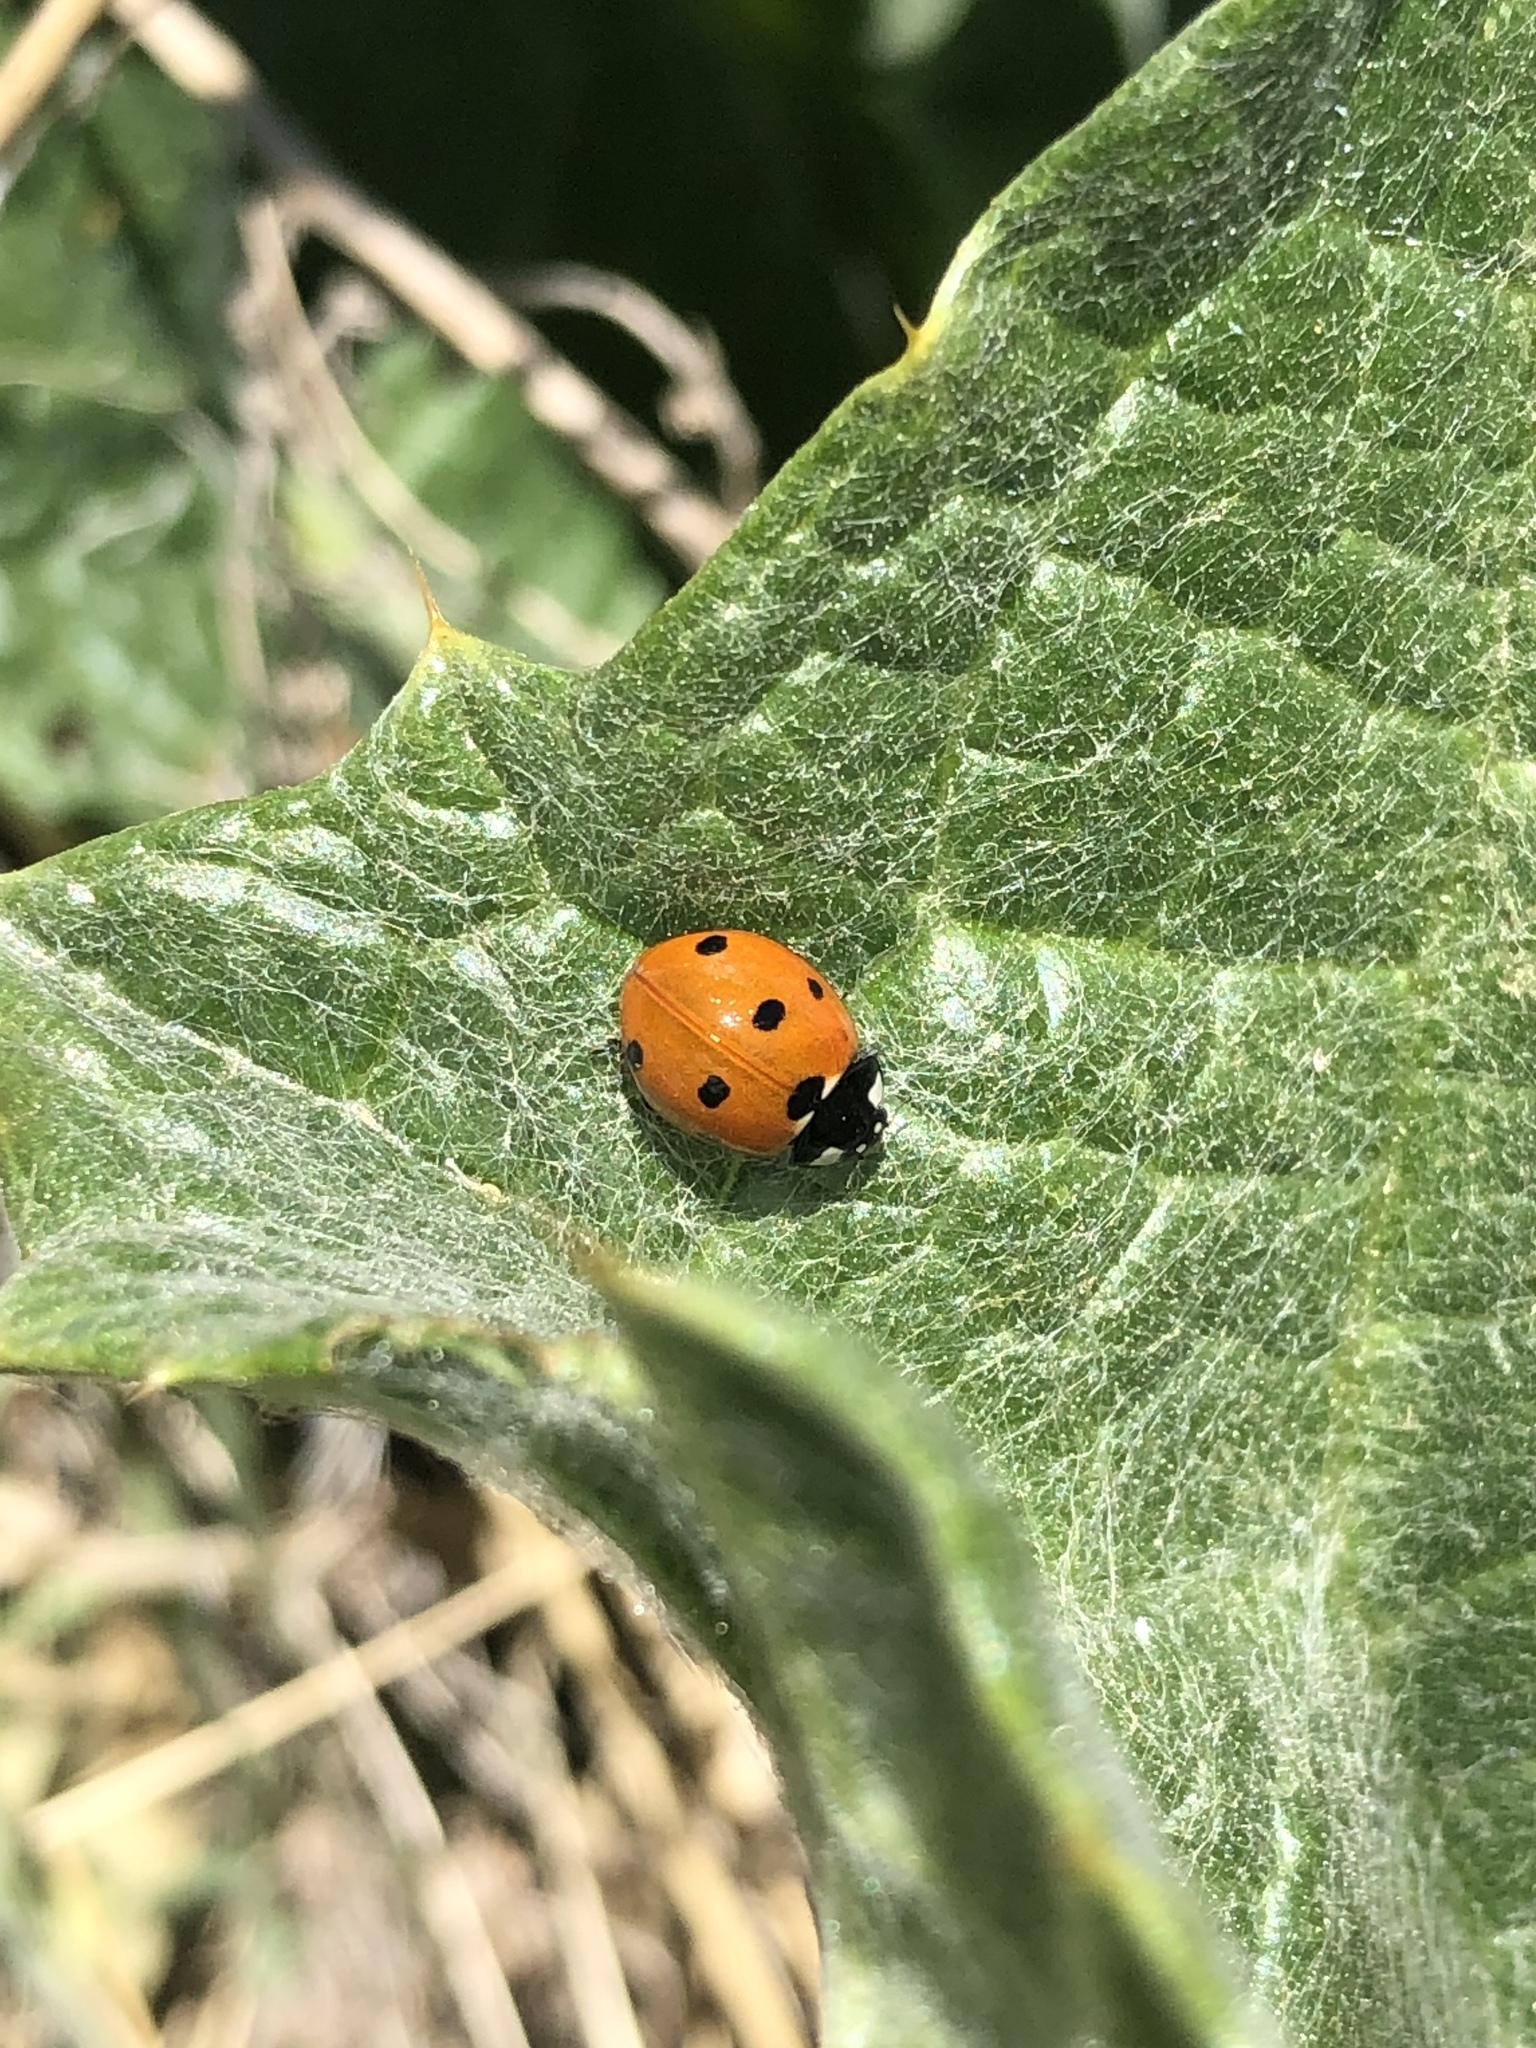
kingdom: Animalia
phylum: Arthropoda
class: Insecta
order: Coleoptera
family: Coccinellidae
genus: Coccinella
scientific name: Coccinella septempunctata
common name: Sevenspotted lady beetle
